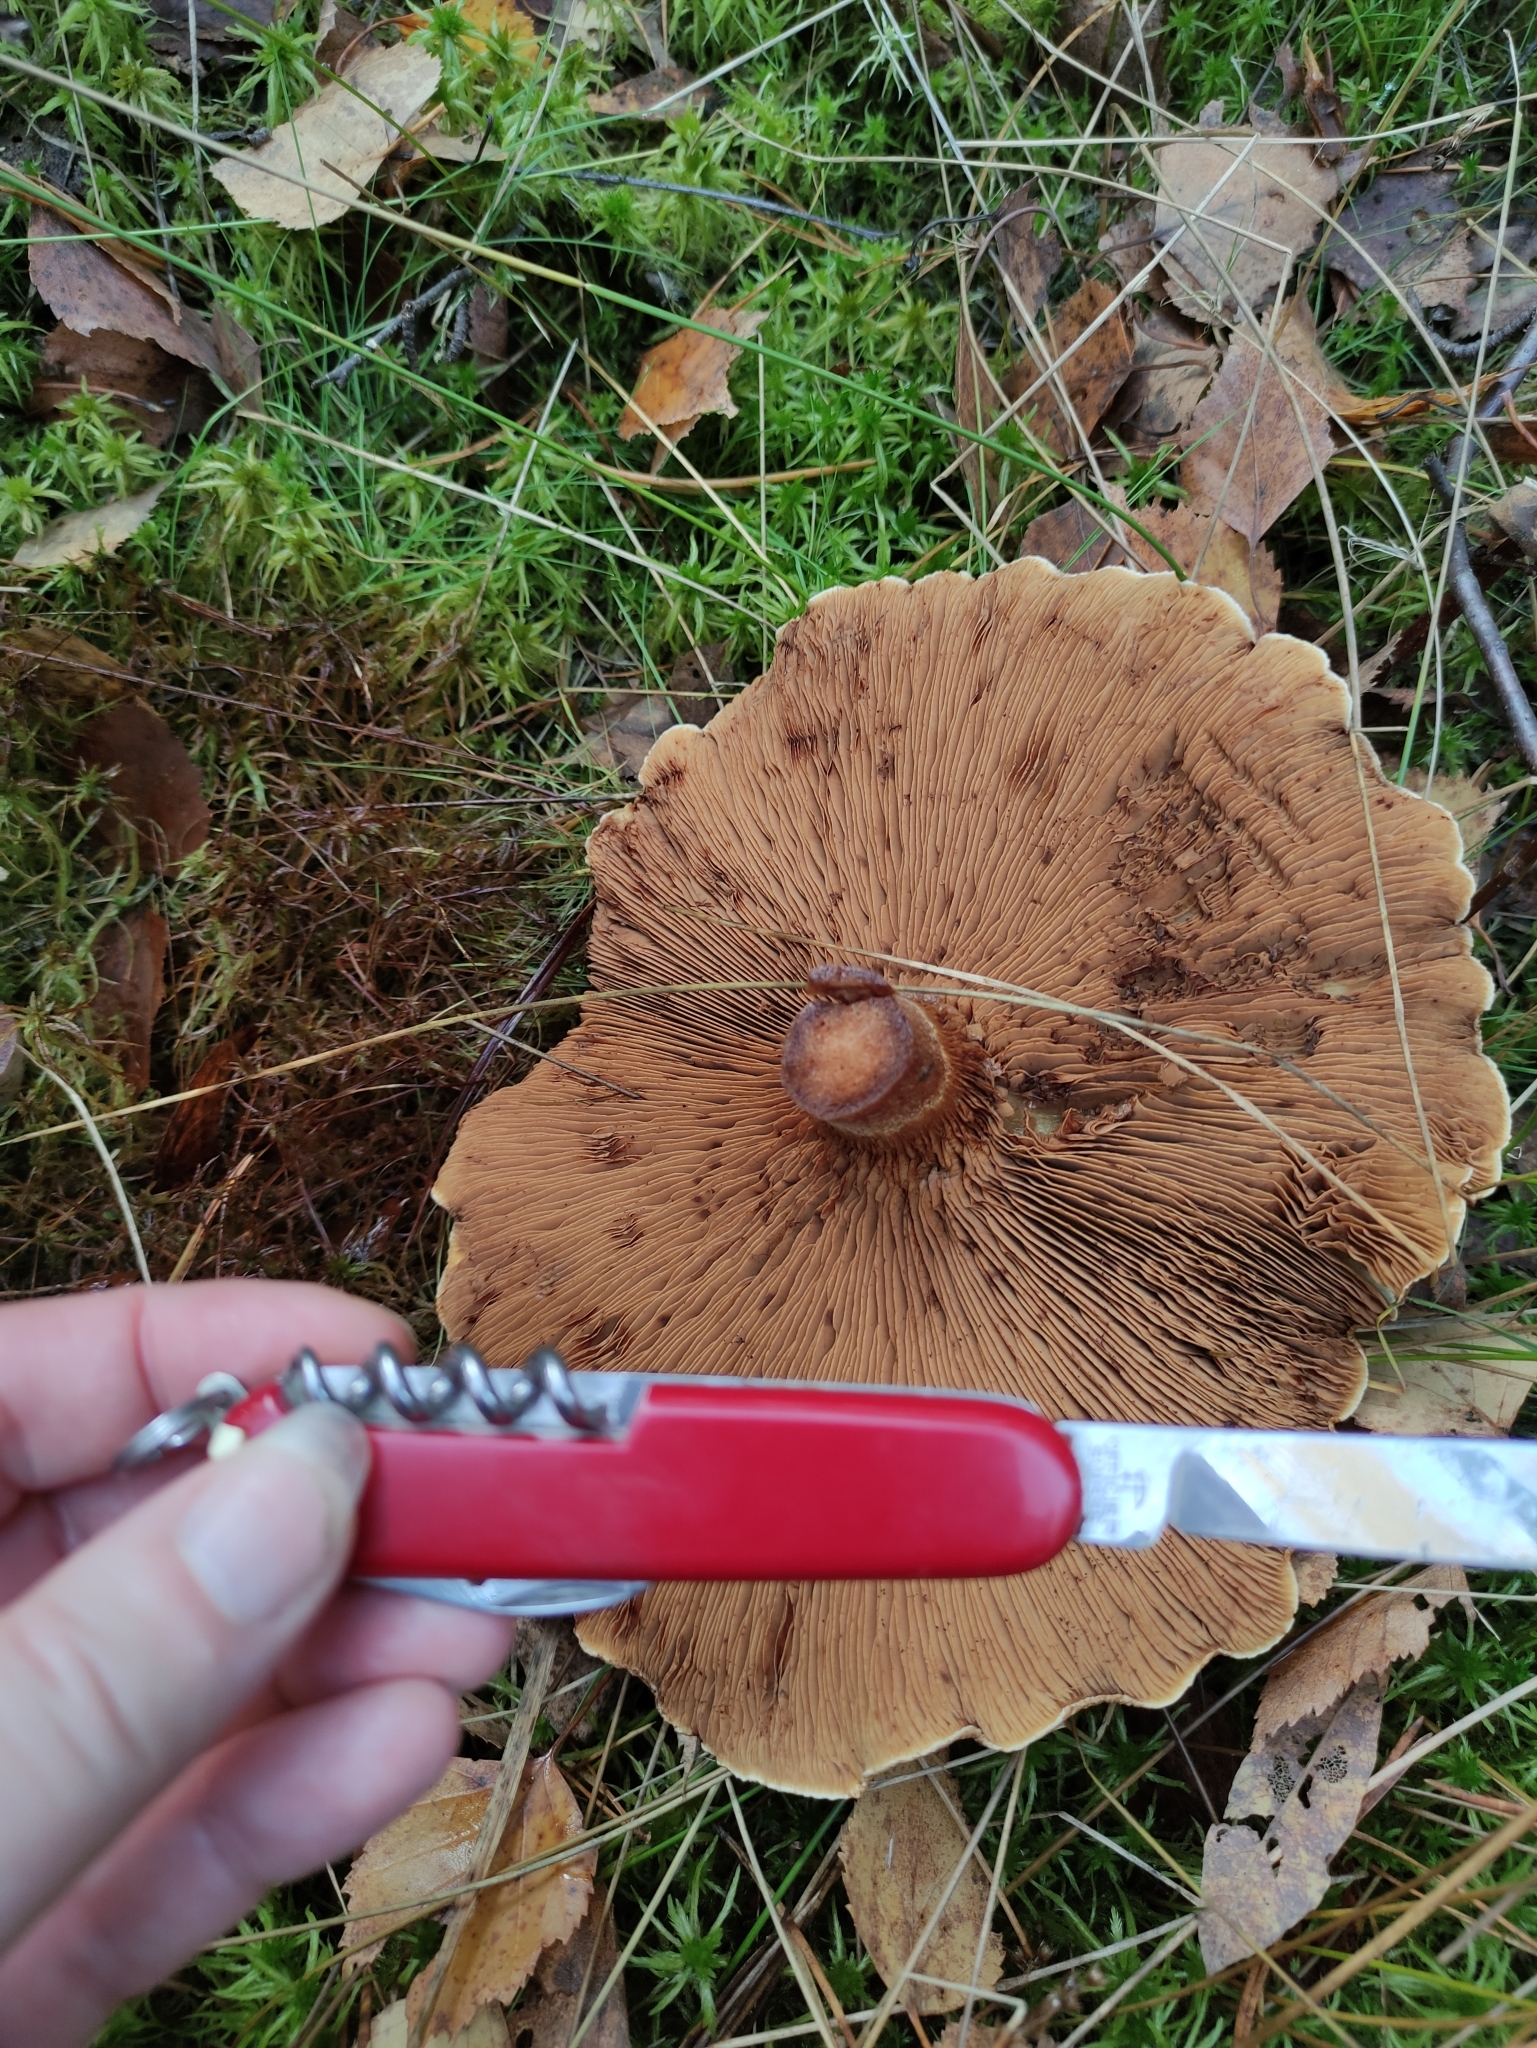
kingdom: Fungi
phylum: Basidiomycota
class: Agaricomycetes
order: Boletales
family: Paxillaceae
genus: Paxillus
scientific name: Paxillus involutus
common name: Brown roll rim
